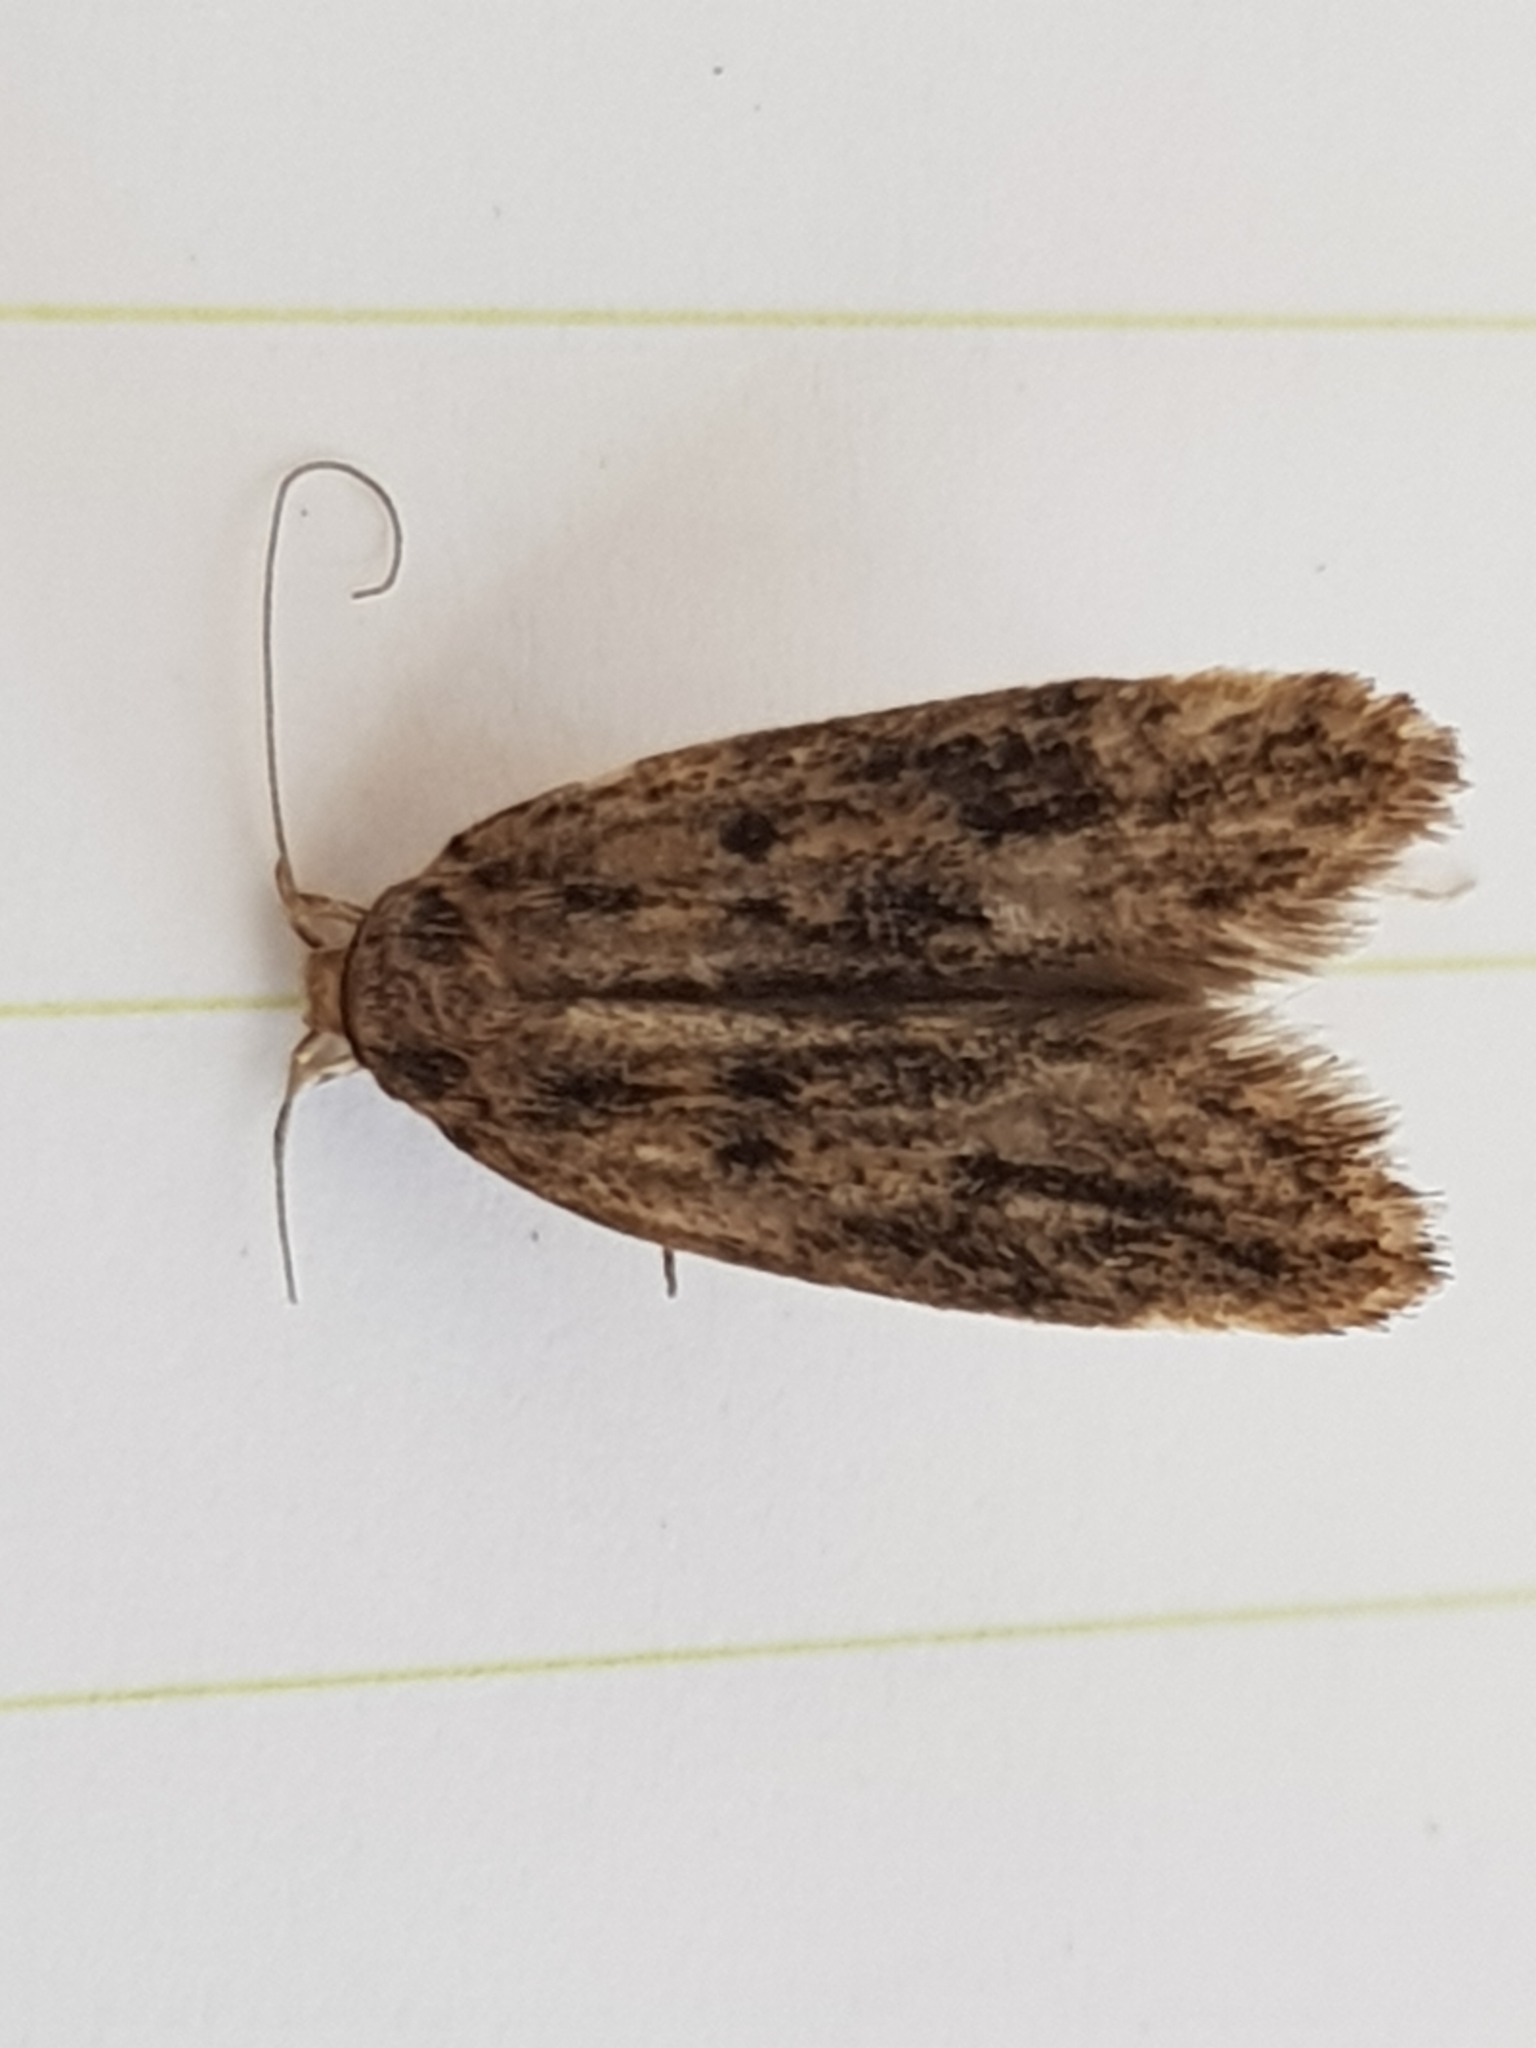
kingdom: Animalia
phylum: Arthropoda
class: Insecta
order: Lepidoptera
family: Oecophoridae
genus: Hofmannophila
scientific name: Hofmannophila pseudospretella
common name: Brown house moth
